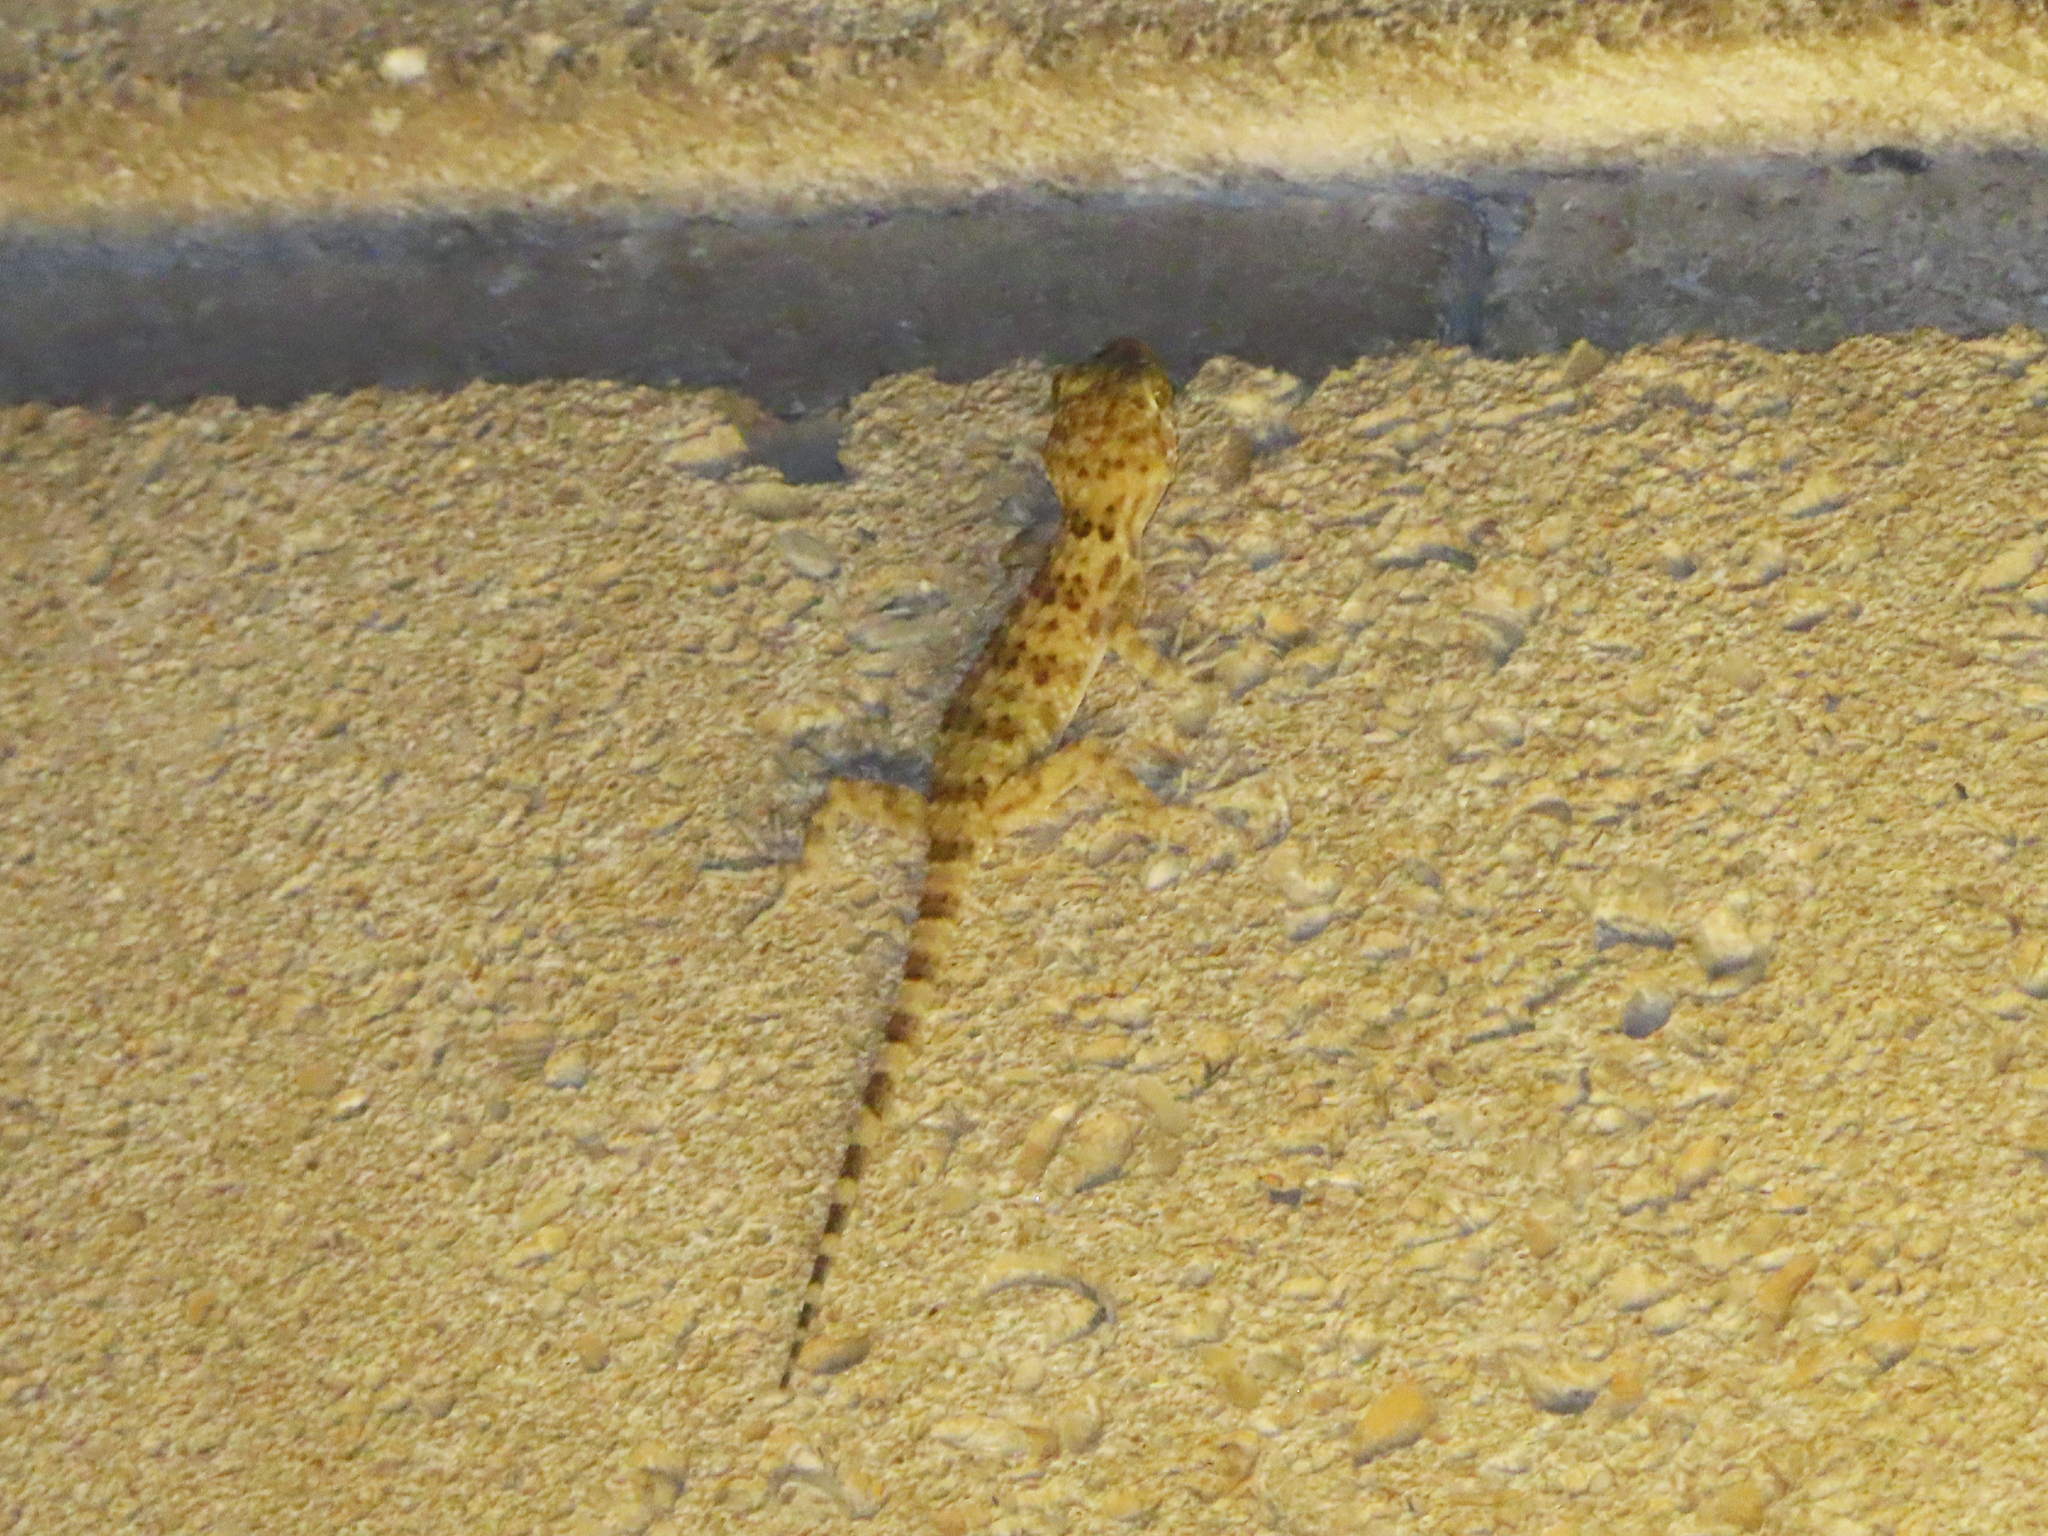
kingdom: Animalia
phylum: Chordata
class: Squamata
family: Gekkonidae
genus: Tenuidactylus
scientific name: Tenuidactylus caspius
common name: Caspian bent-toed gecko
